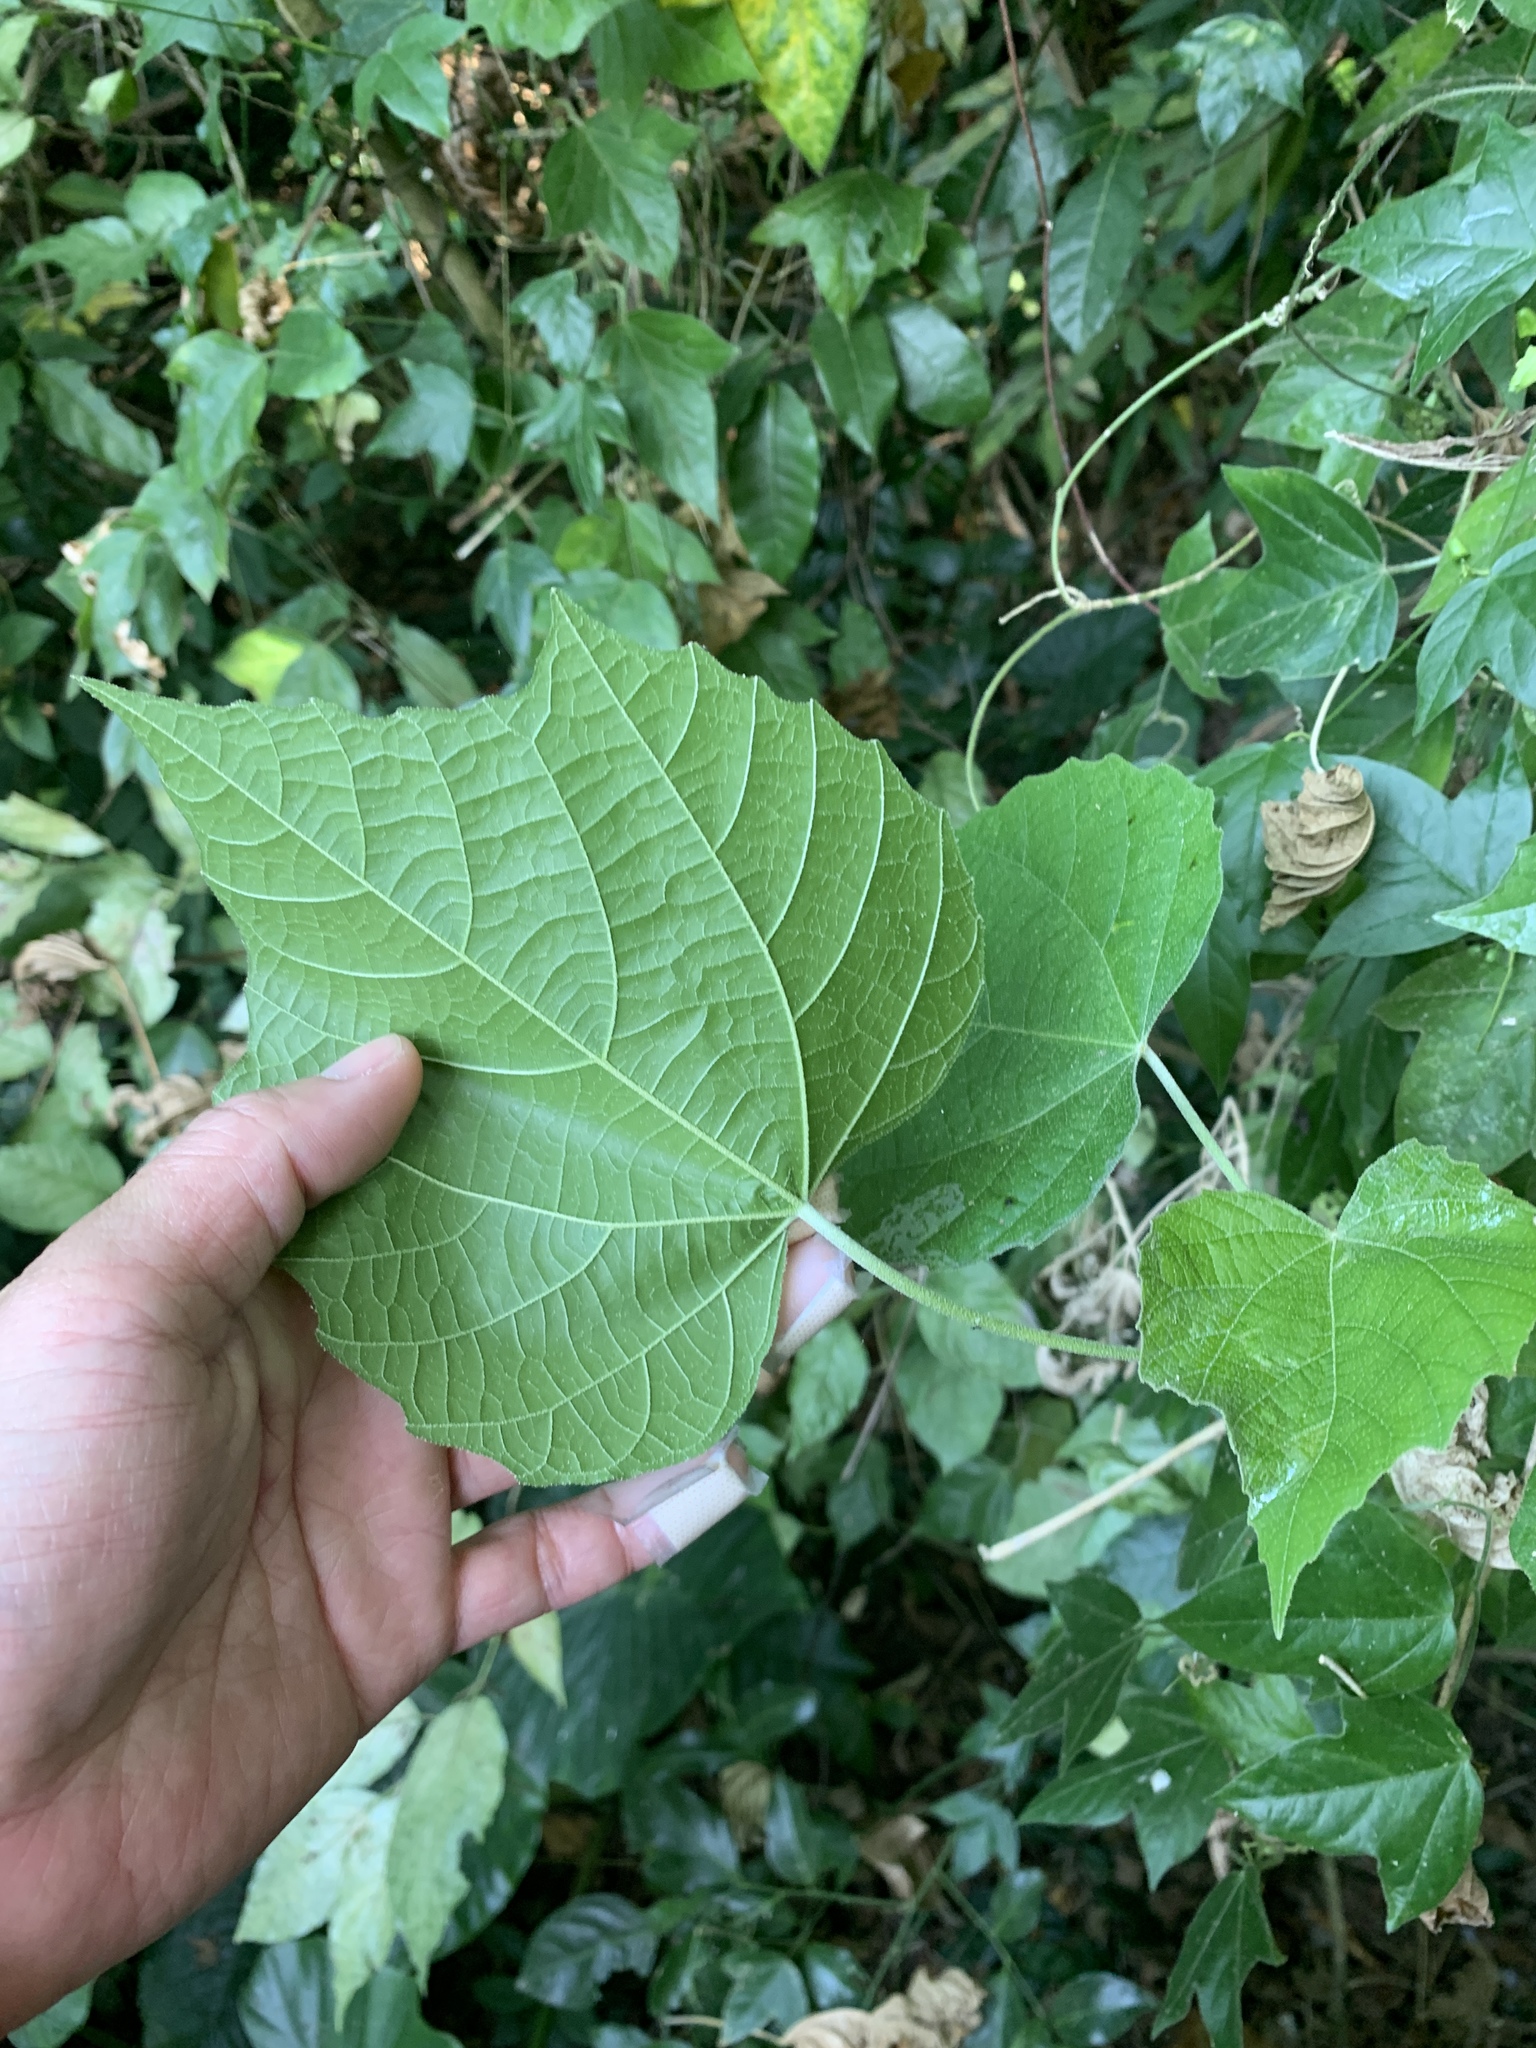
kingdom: Plantae
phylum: Tracheophyta
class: Magnoliopsida
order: Malpighiales
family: Euphorbiaceae
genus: Melanolepis
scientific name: Melanolepis multiglandulosa
